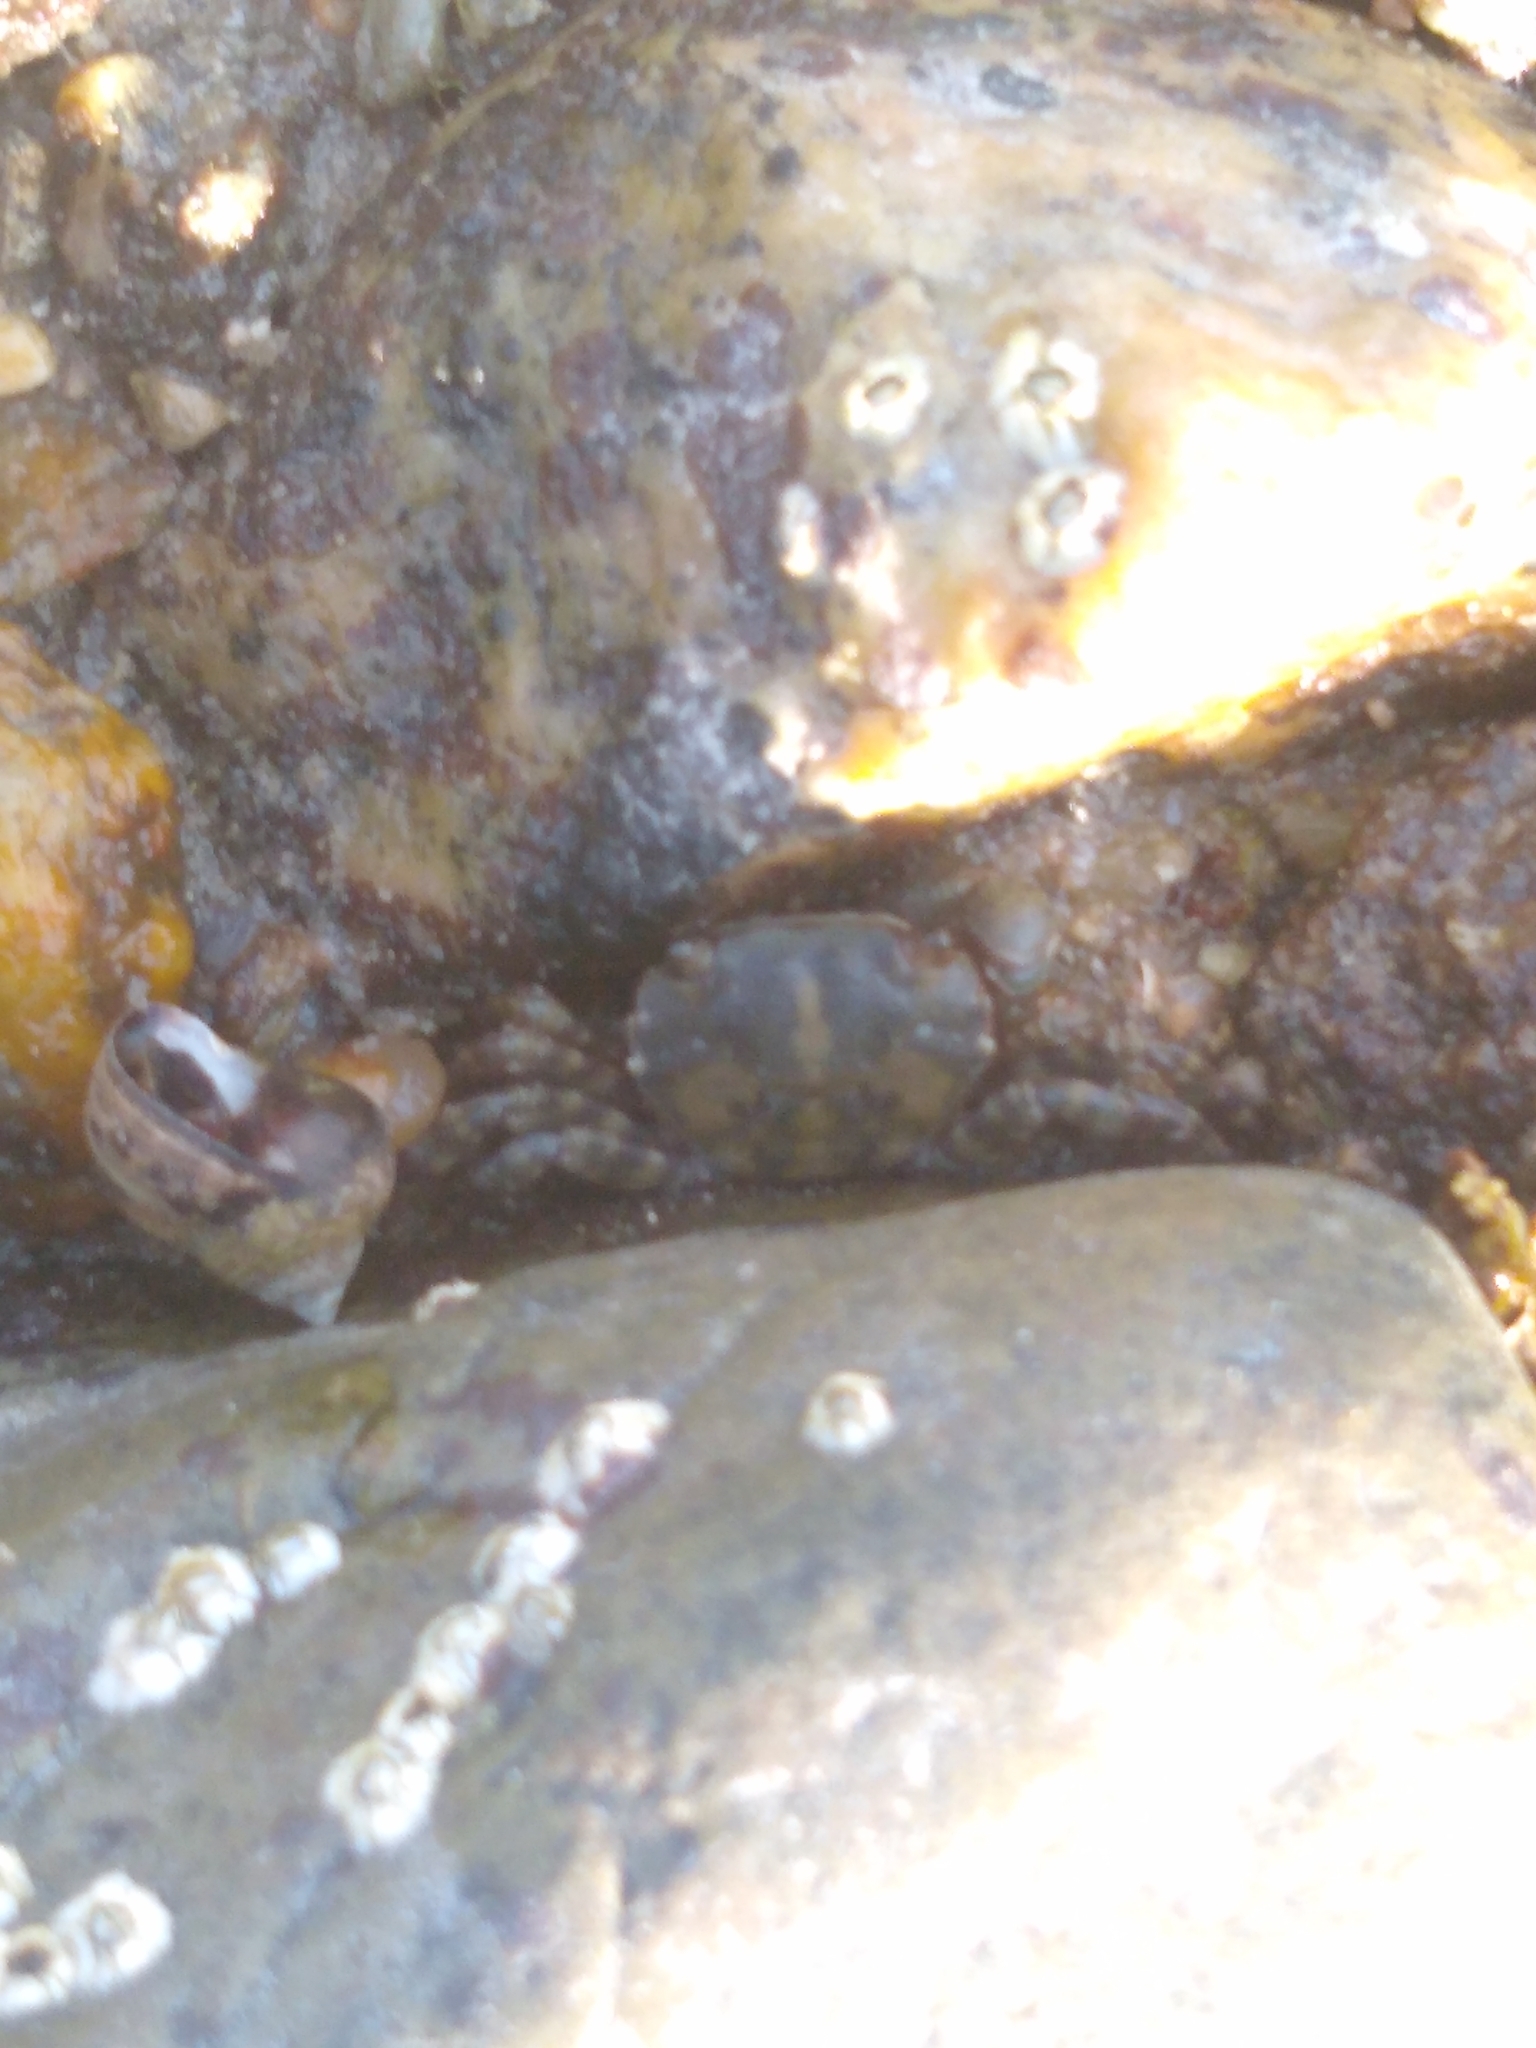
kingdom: Animalia
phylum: Arthropoda
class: Malacostraca
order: Decapoda
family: Varunidae
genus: Hemigrapsus
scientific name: Hemigrapsus sanguineus
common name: Asian shore crab
